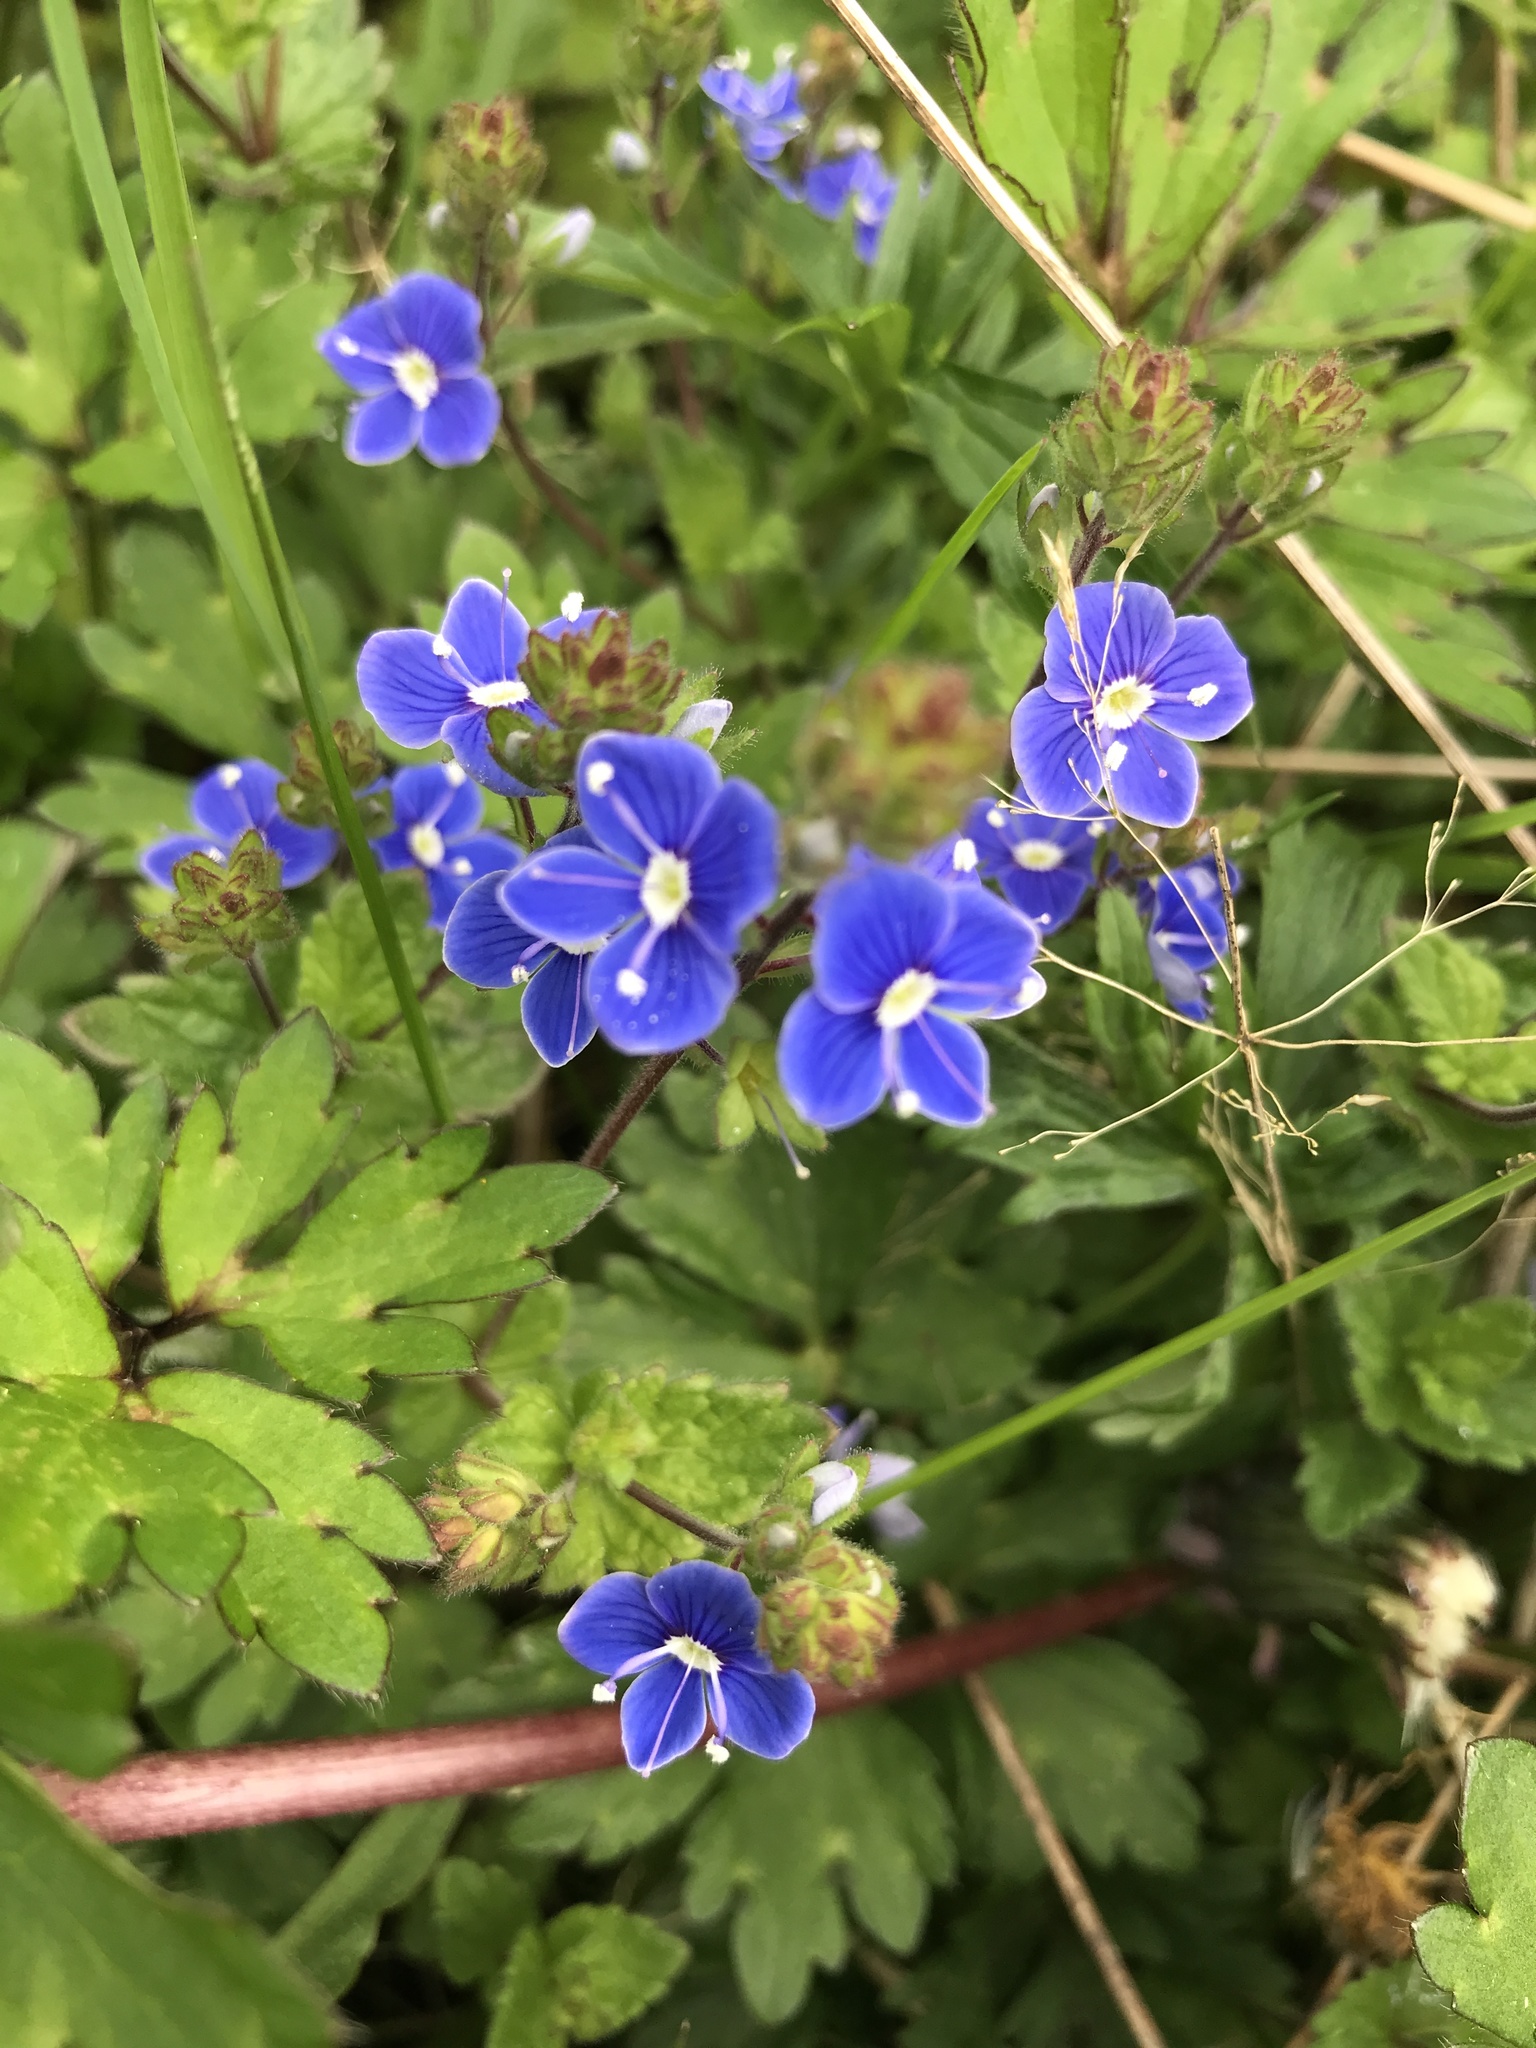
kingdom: Plantae
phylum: Tracheophyta
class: Magnoliopsida
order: Lamiales
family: Plantaginaceae
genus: Veronica
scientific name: Veronica chamaedrys
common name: Germander speedwell
